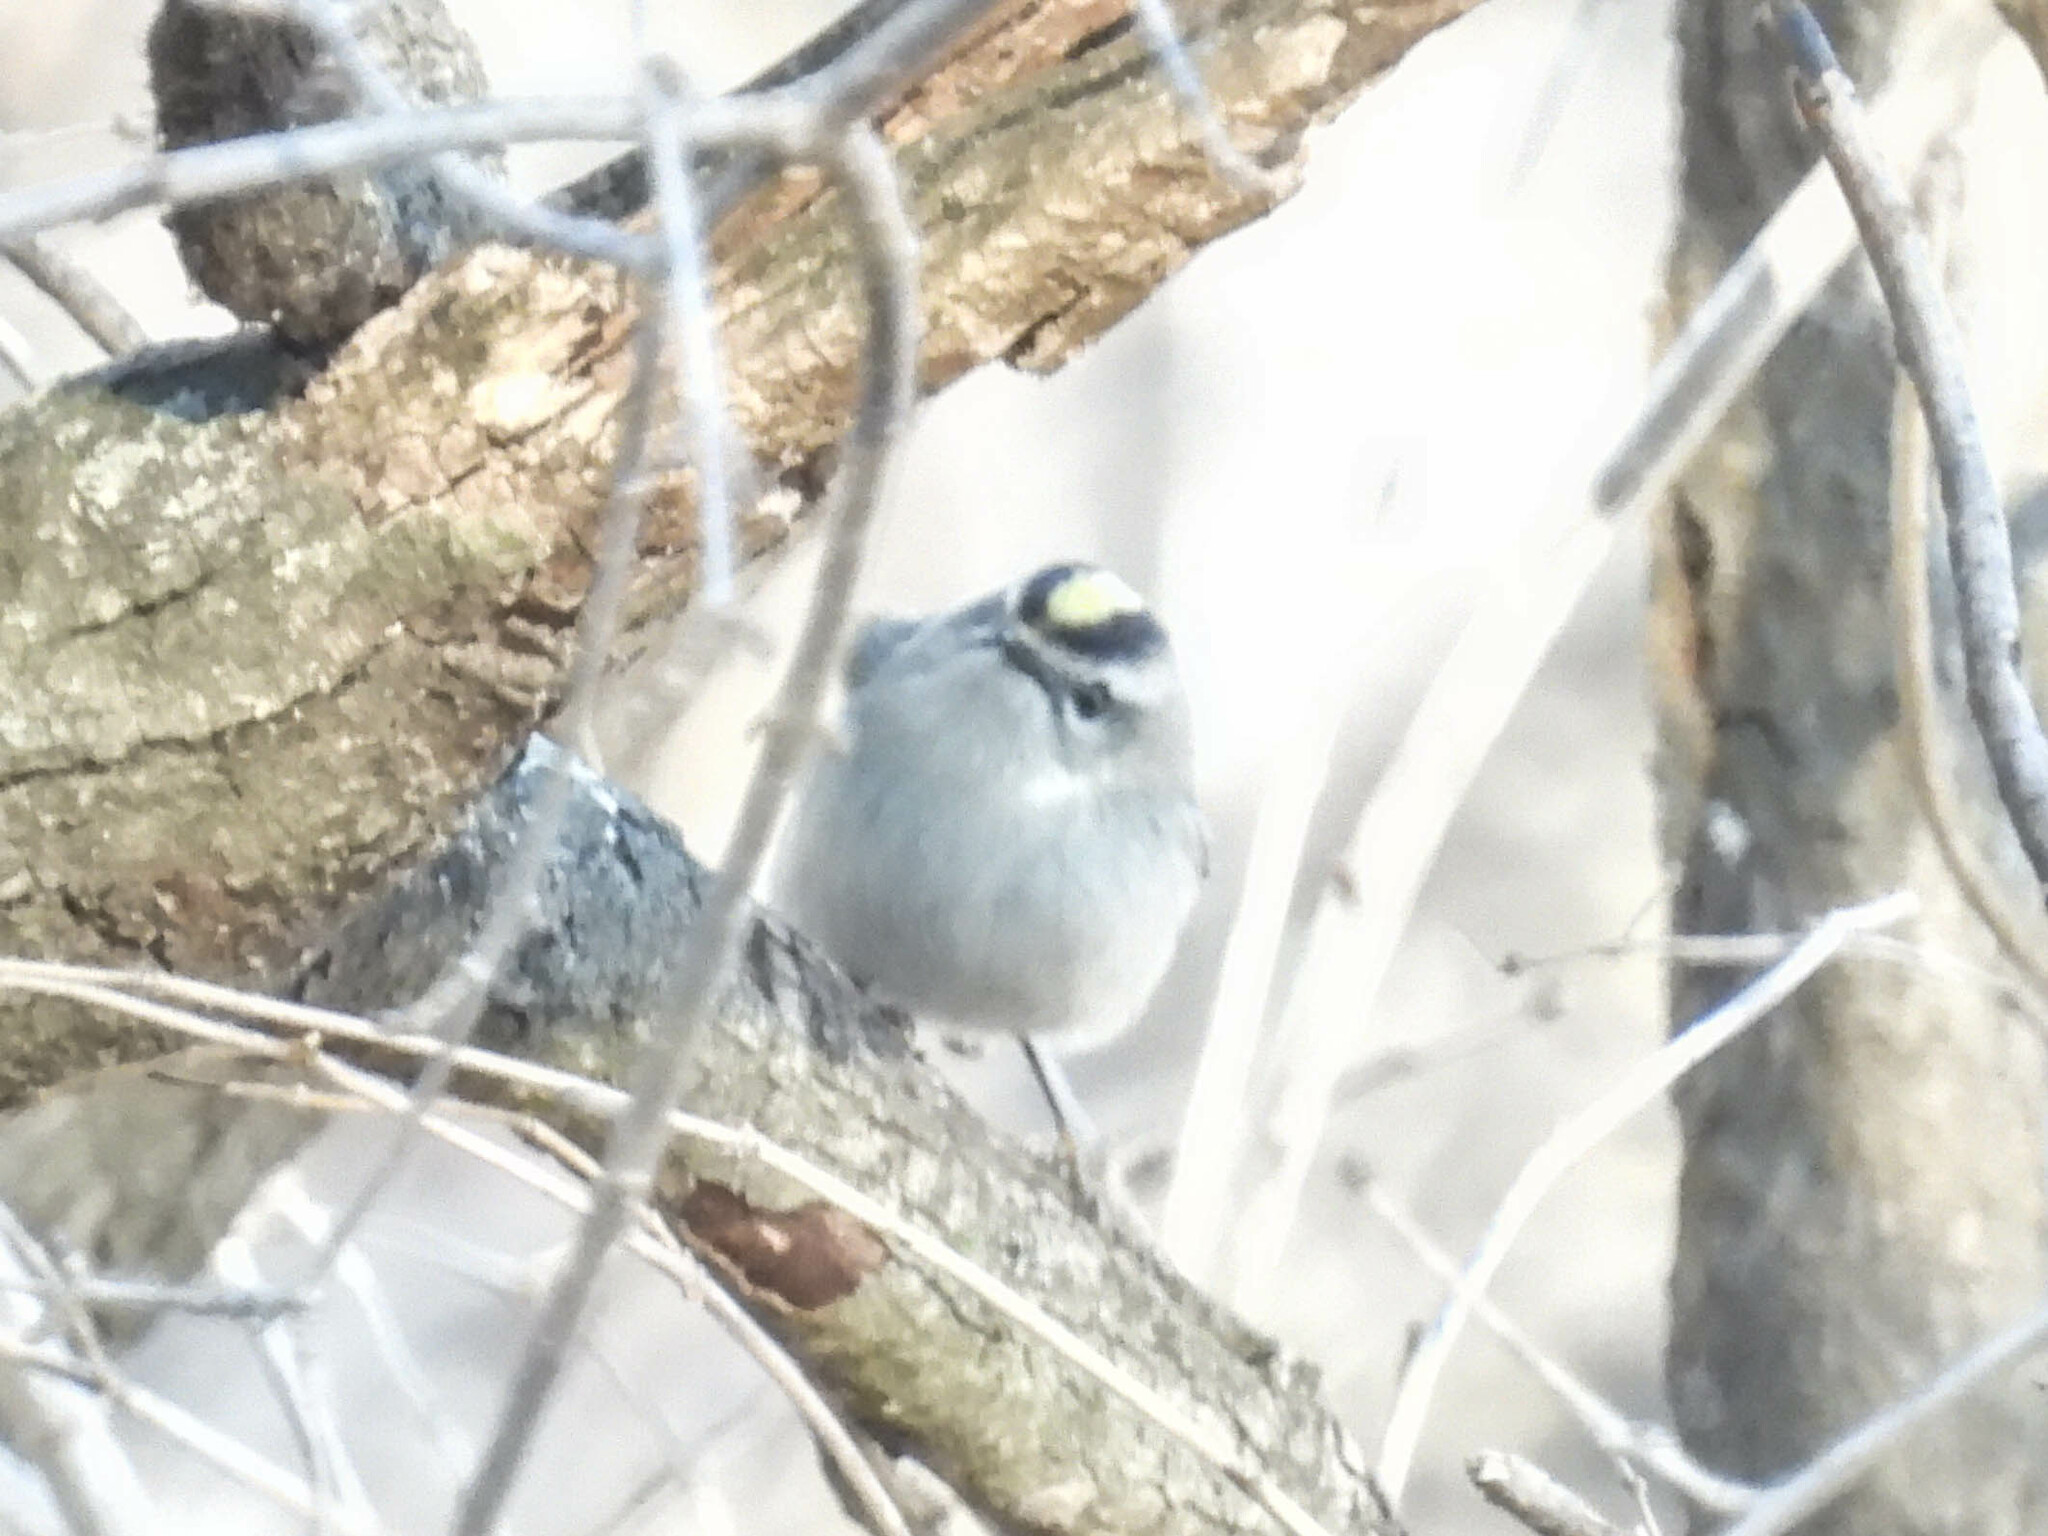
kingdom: Animalia
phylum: Chordata
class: Aves
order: Passeriformes
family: Regulidae
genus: Regulus
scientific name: Regulus satrapa
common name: Golden-crowned kinglet
